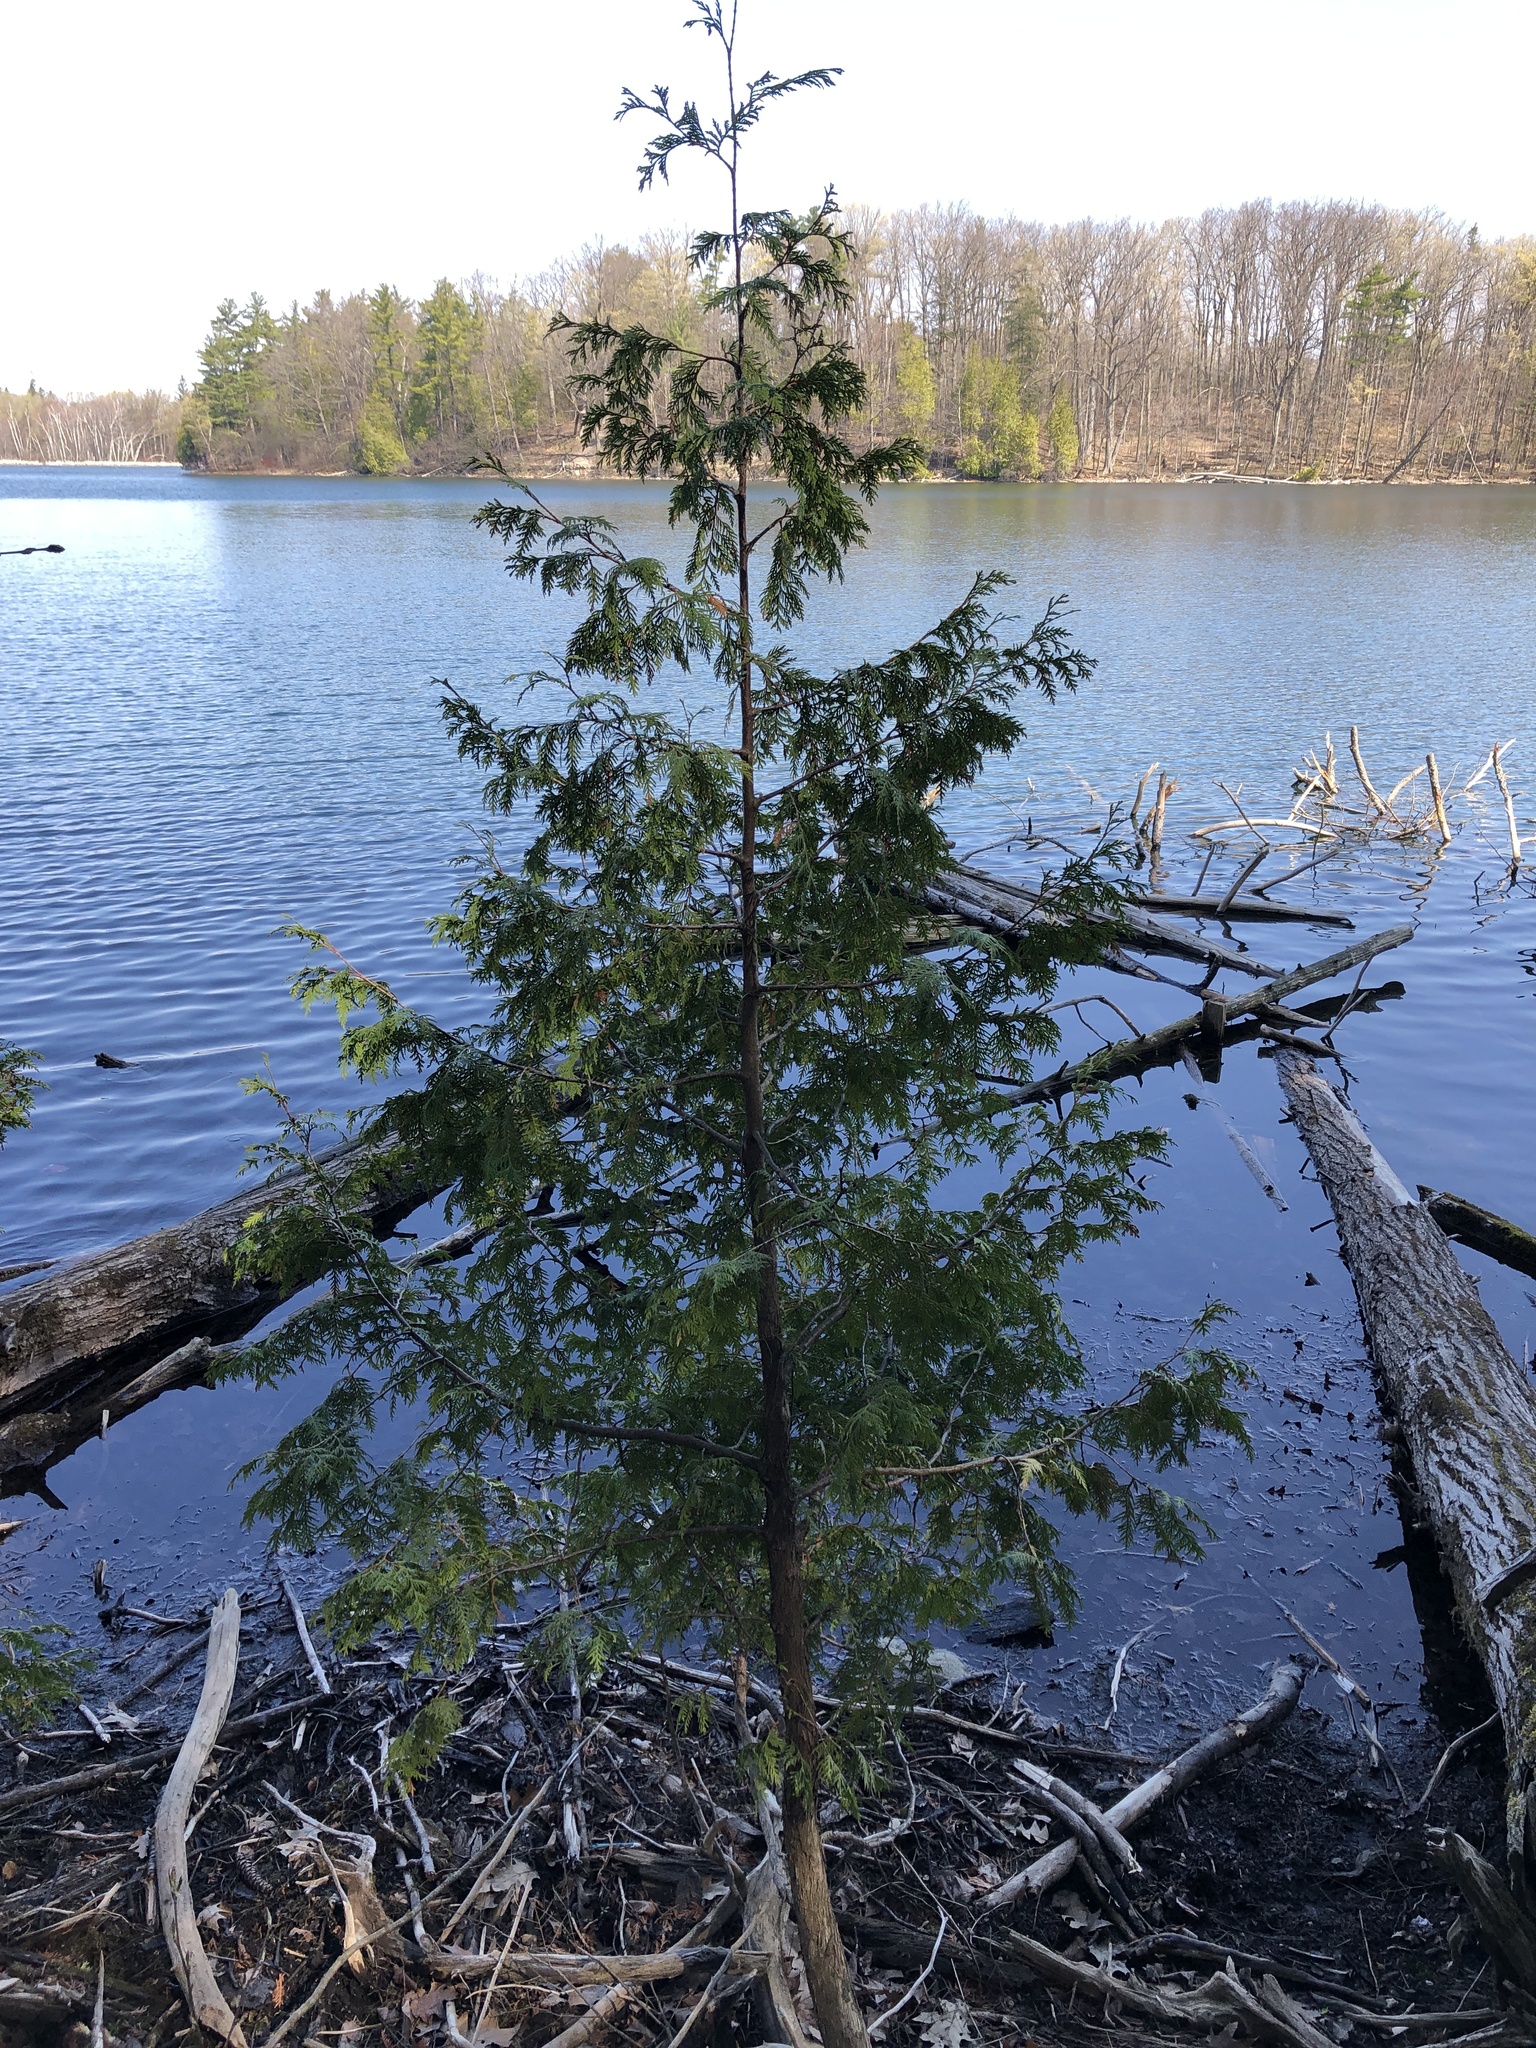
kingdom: Plantae
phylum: Tracheophyta
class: Pinopsida
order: Pinales
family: Cupressaceae
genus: Thuja
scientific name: Thuja occidentalis
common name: Northern white-cedar
